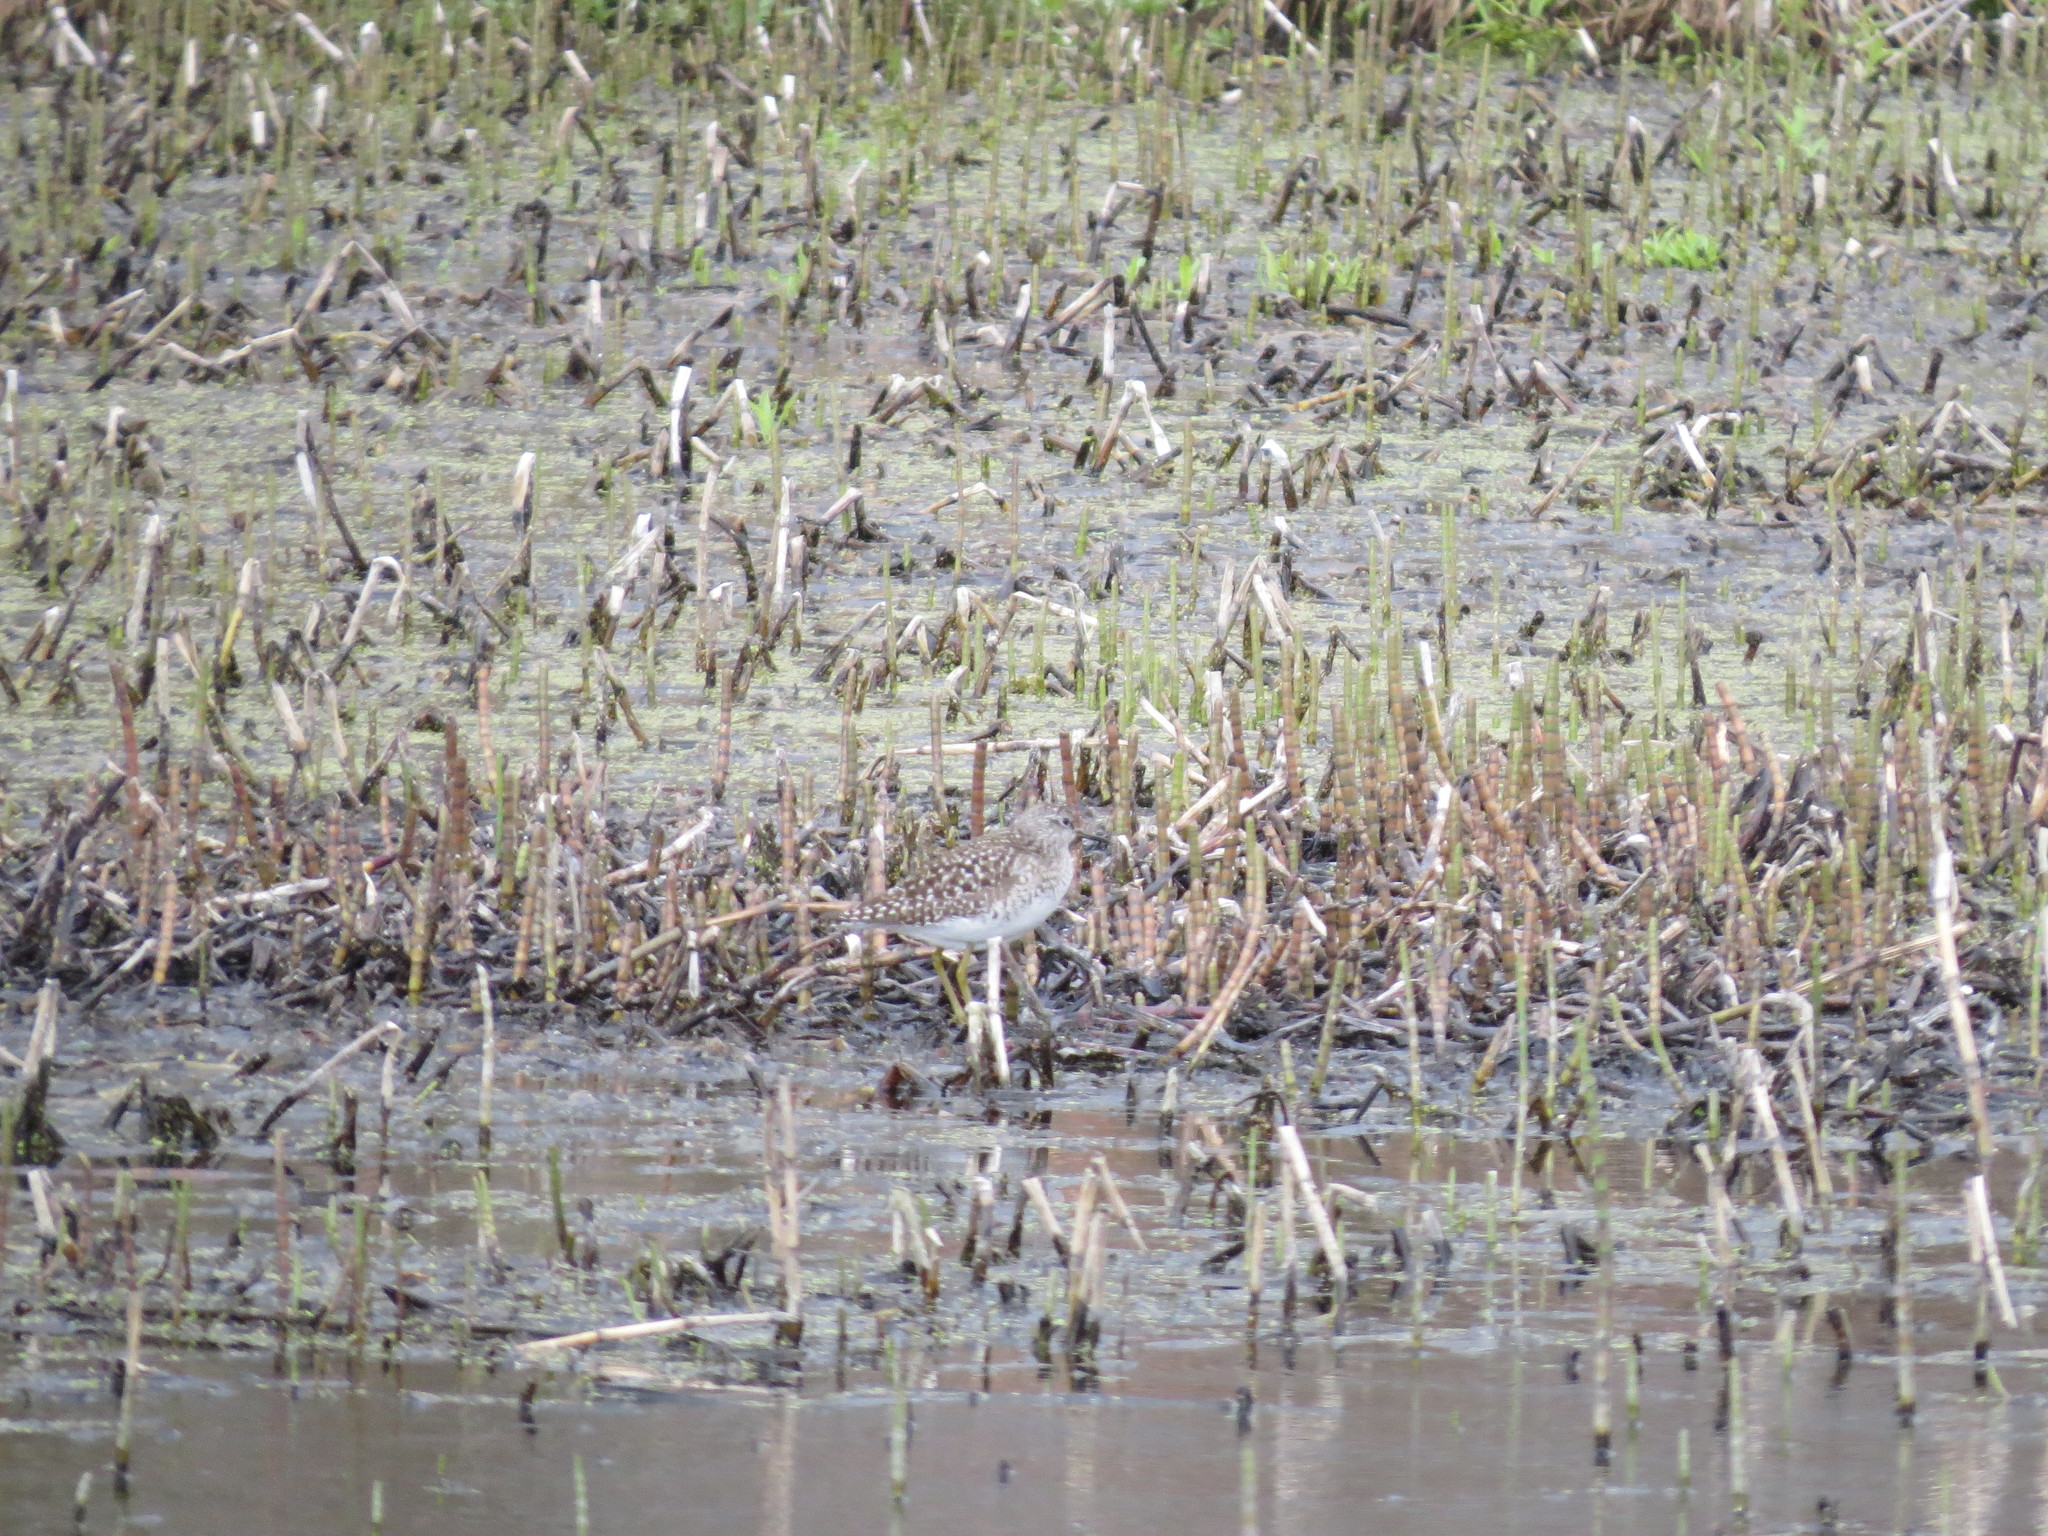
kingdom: Animalia
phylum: Chordata
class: Aves
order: Charadriiformes
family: Scolopacidae
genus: Tringa
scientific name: Tringa glareola
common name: Wood sandpiper
